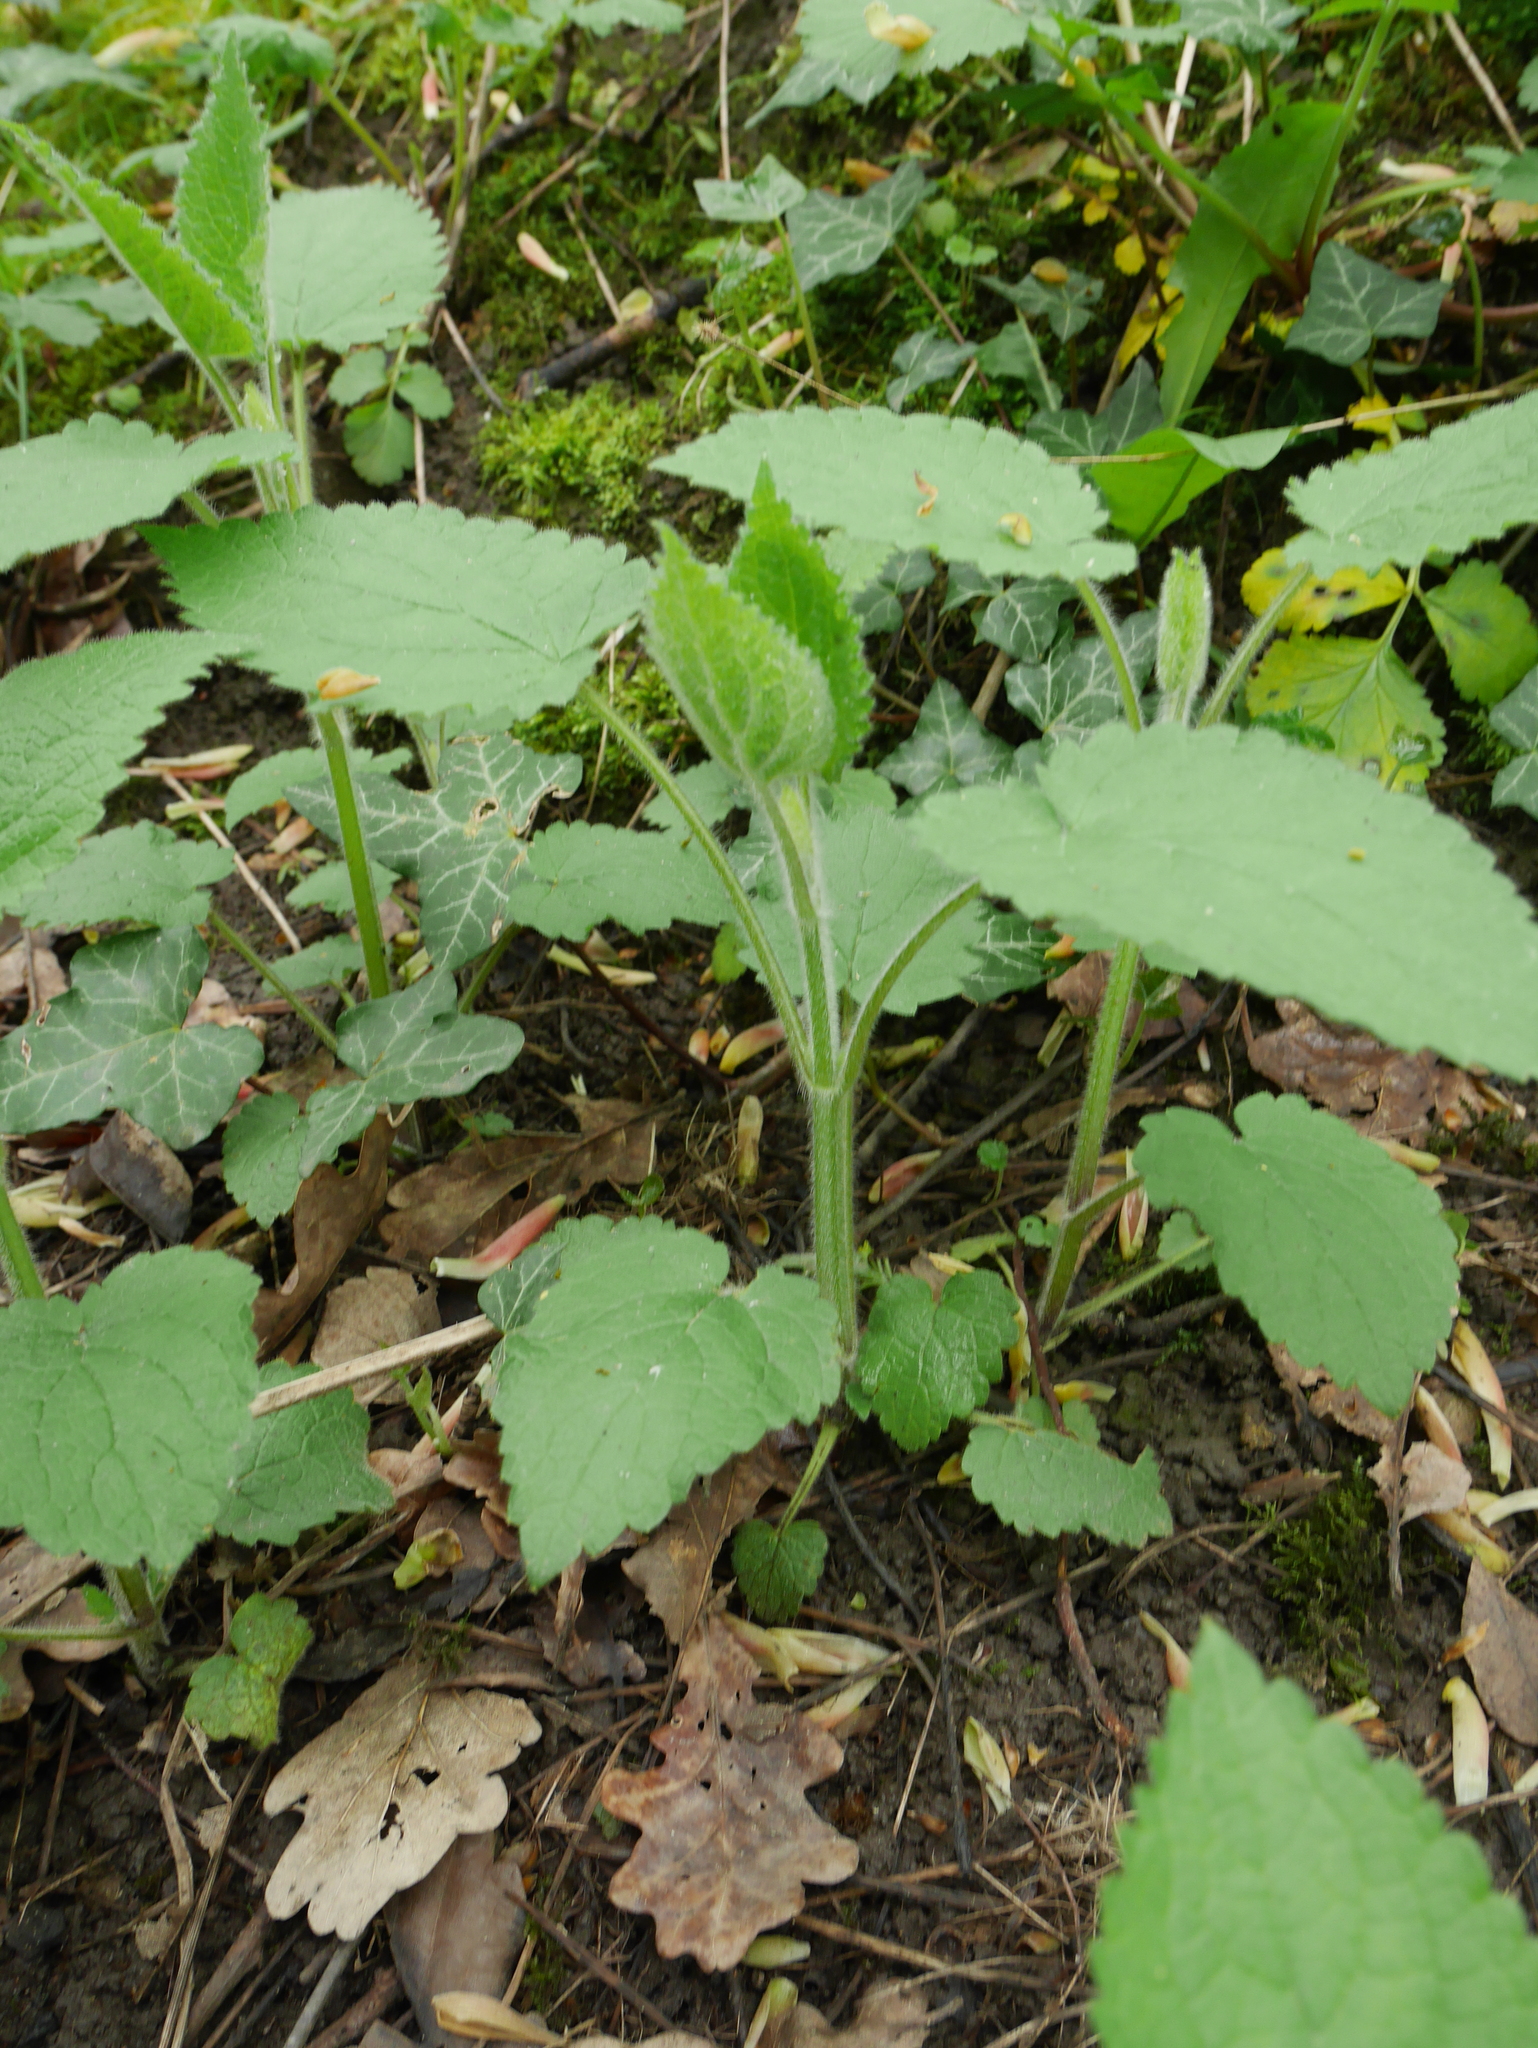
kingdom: Plantae
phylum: Tracheophyta
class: Magnoliopsida
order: Lamiales
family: Lamiaceae
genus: Stachys
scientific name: Stachys sylvatica
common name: Hedge woundwort
